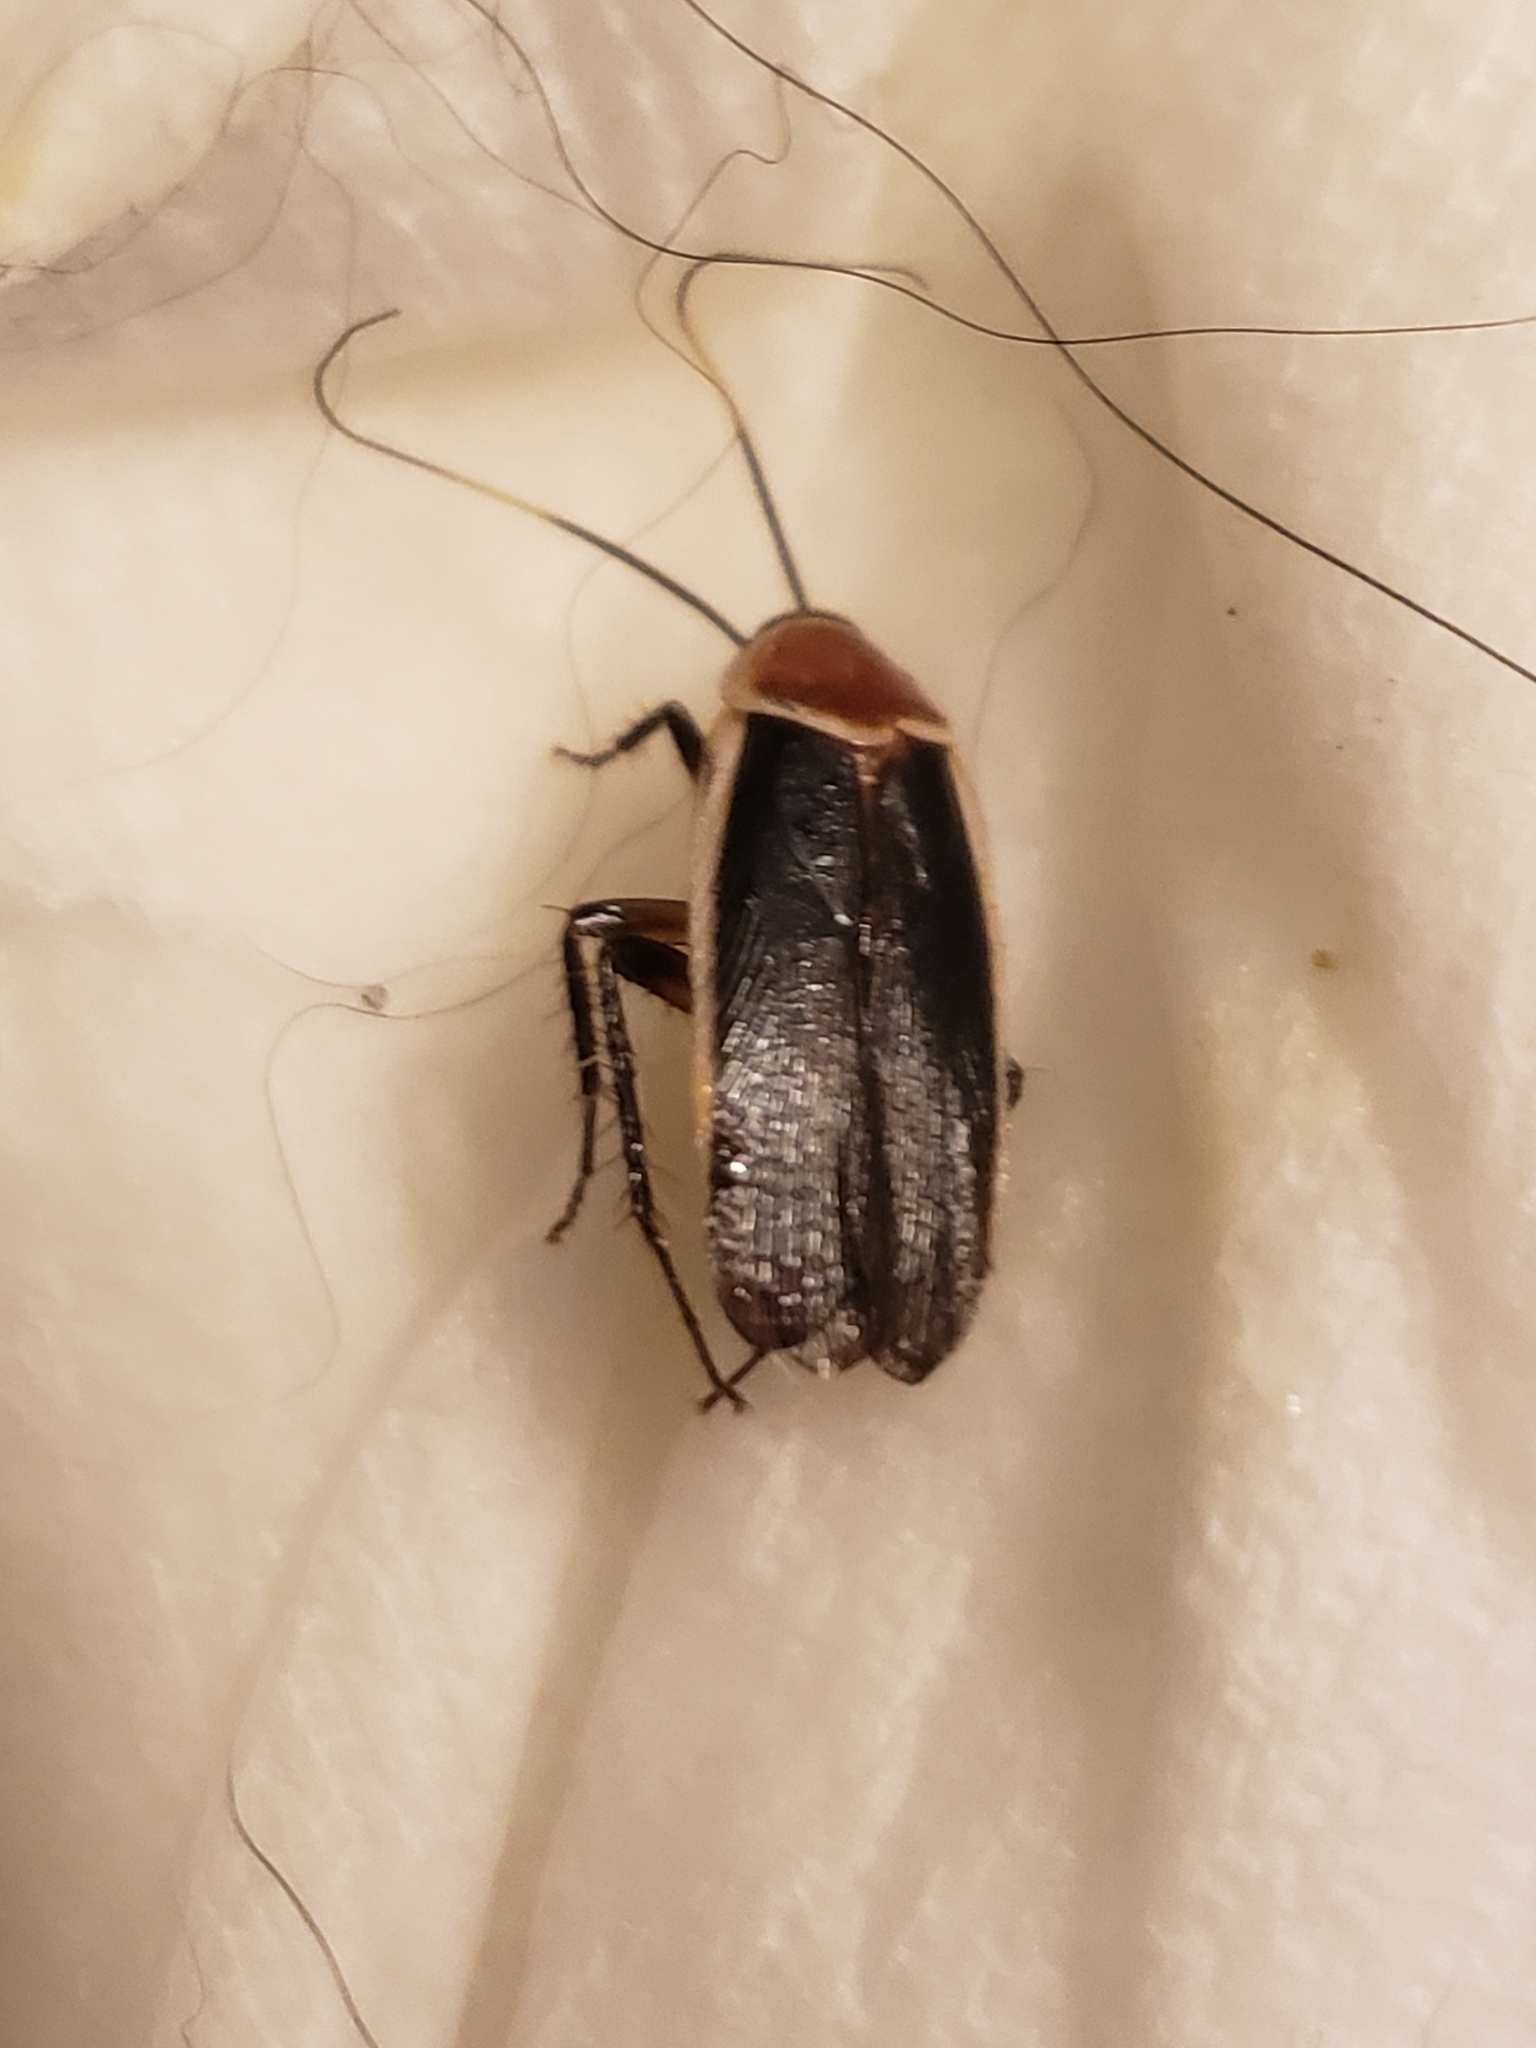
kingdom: Animalia
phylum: Arthropoda
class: Insecta
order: Blattodea
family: Ectobiidae
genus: Pseudomops
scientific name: Pseudomops septentrionalis
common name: Pale-bordered field cockroach
